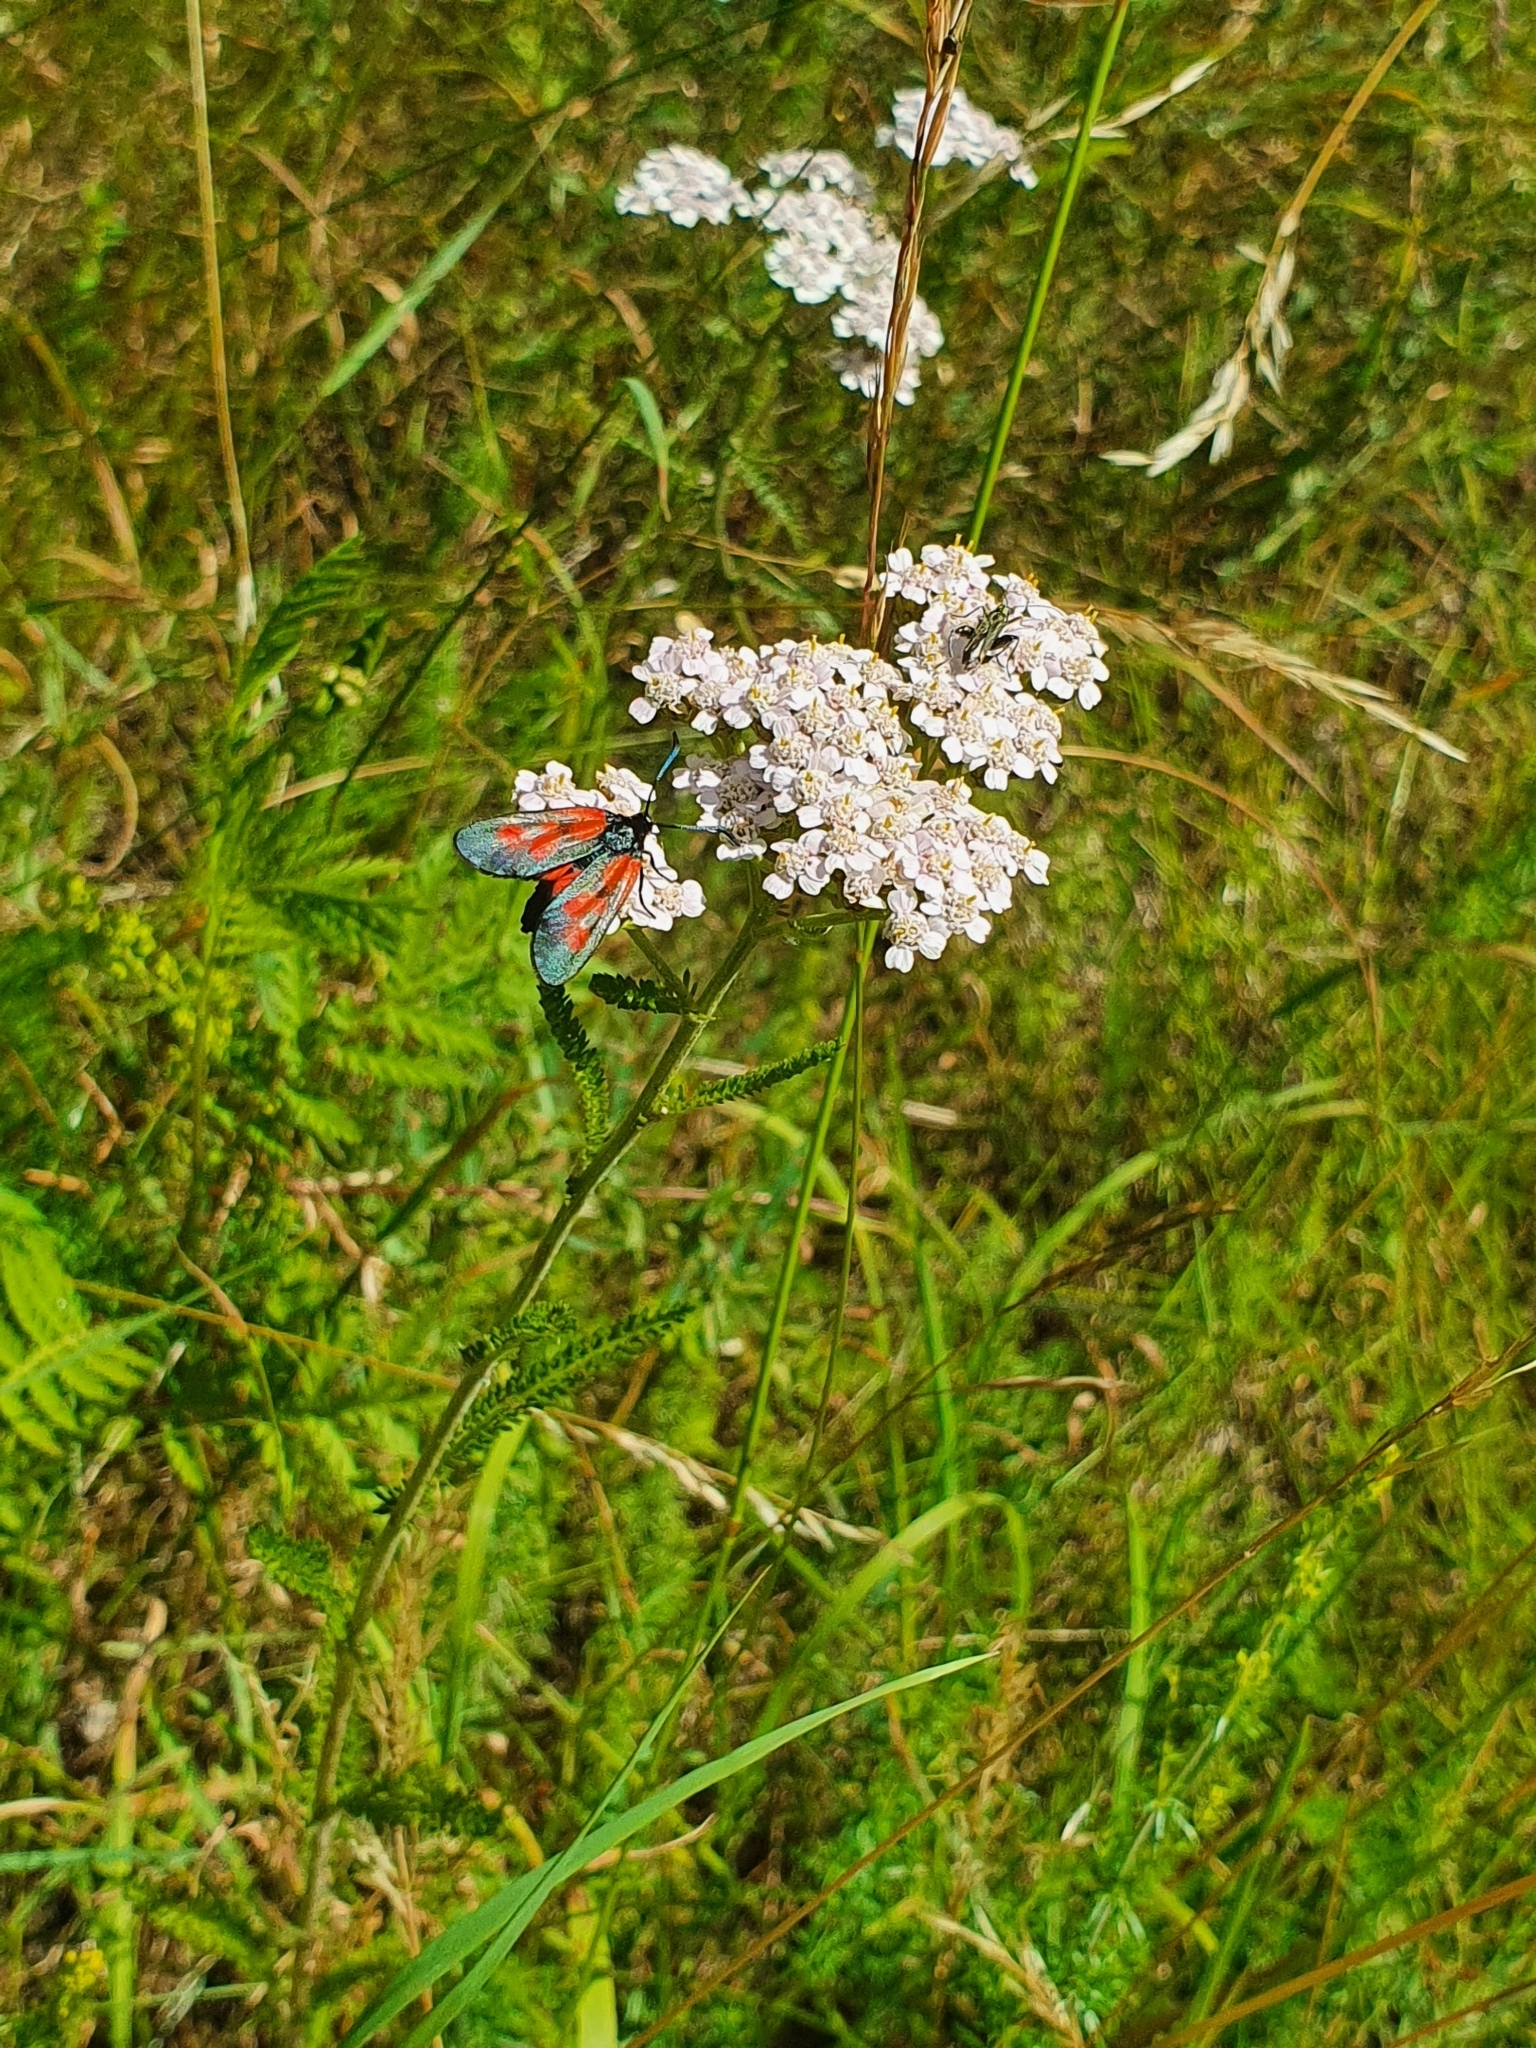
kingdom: Animalia
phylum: Arthropoda
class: Insecta
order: Coleoptera
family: Oedemeridae
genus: Oedemera
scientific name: Oedemera flavipes
